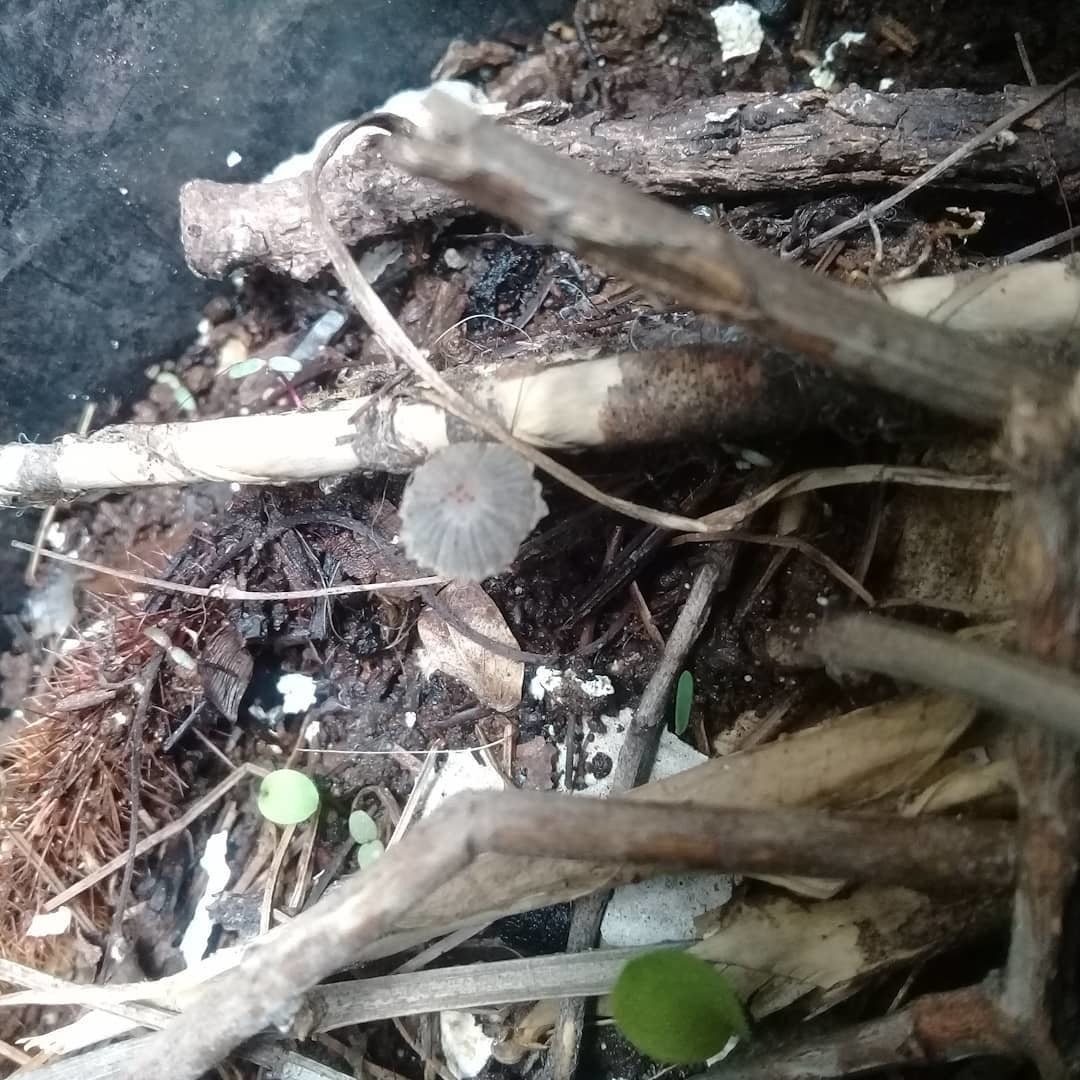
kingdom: Fungi
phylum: Basidiomycota
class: Agaricomycetes
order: Agaricales
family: Psathyrellaceae
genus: Parasola
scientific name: Parasola plicatilis
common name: Pleated inkcap
